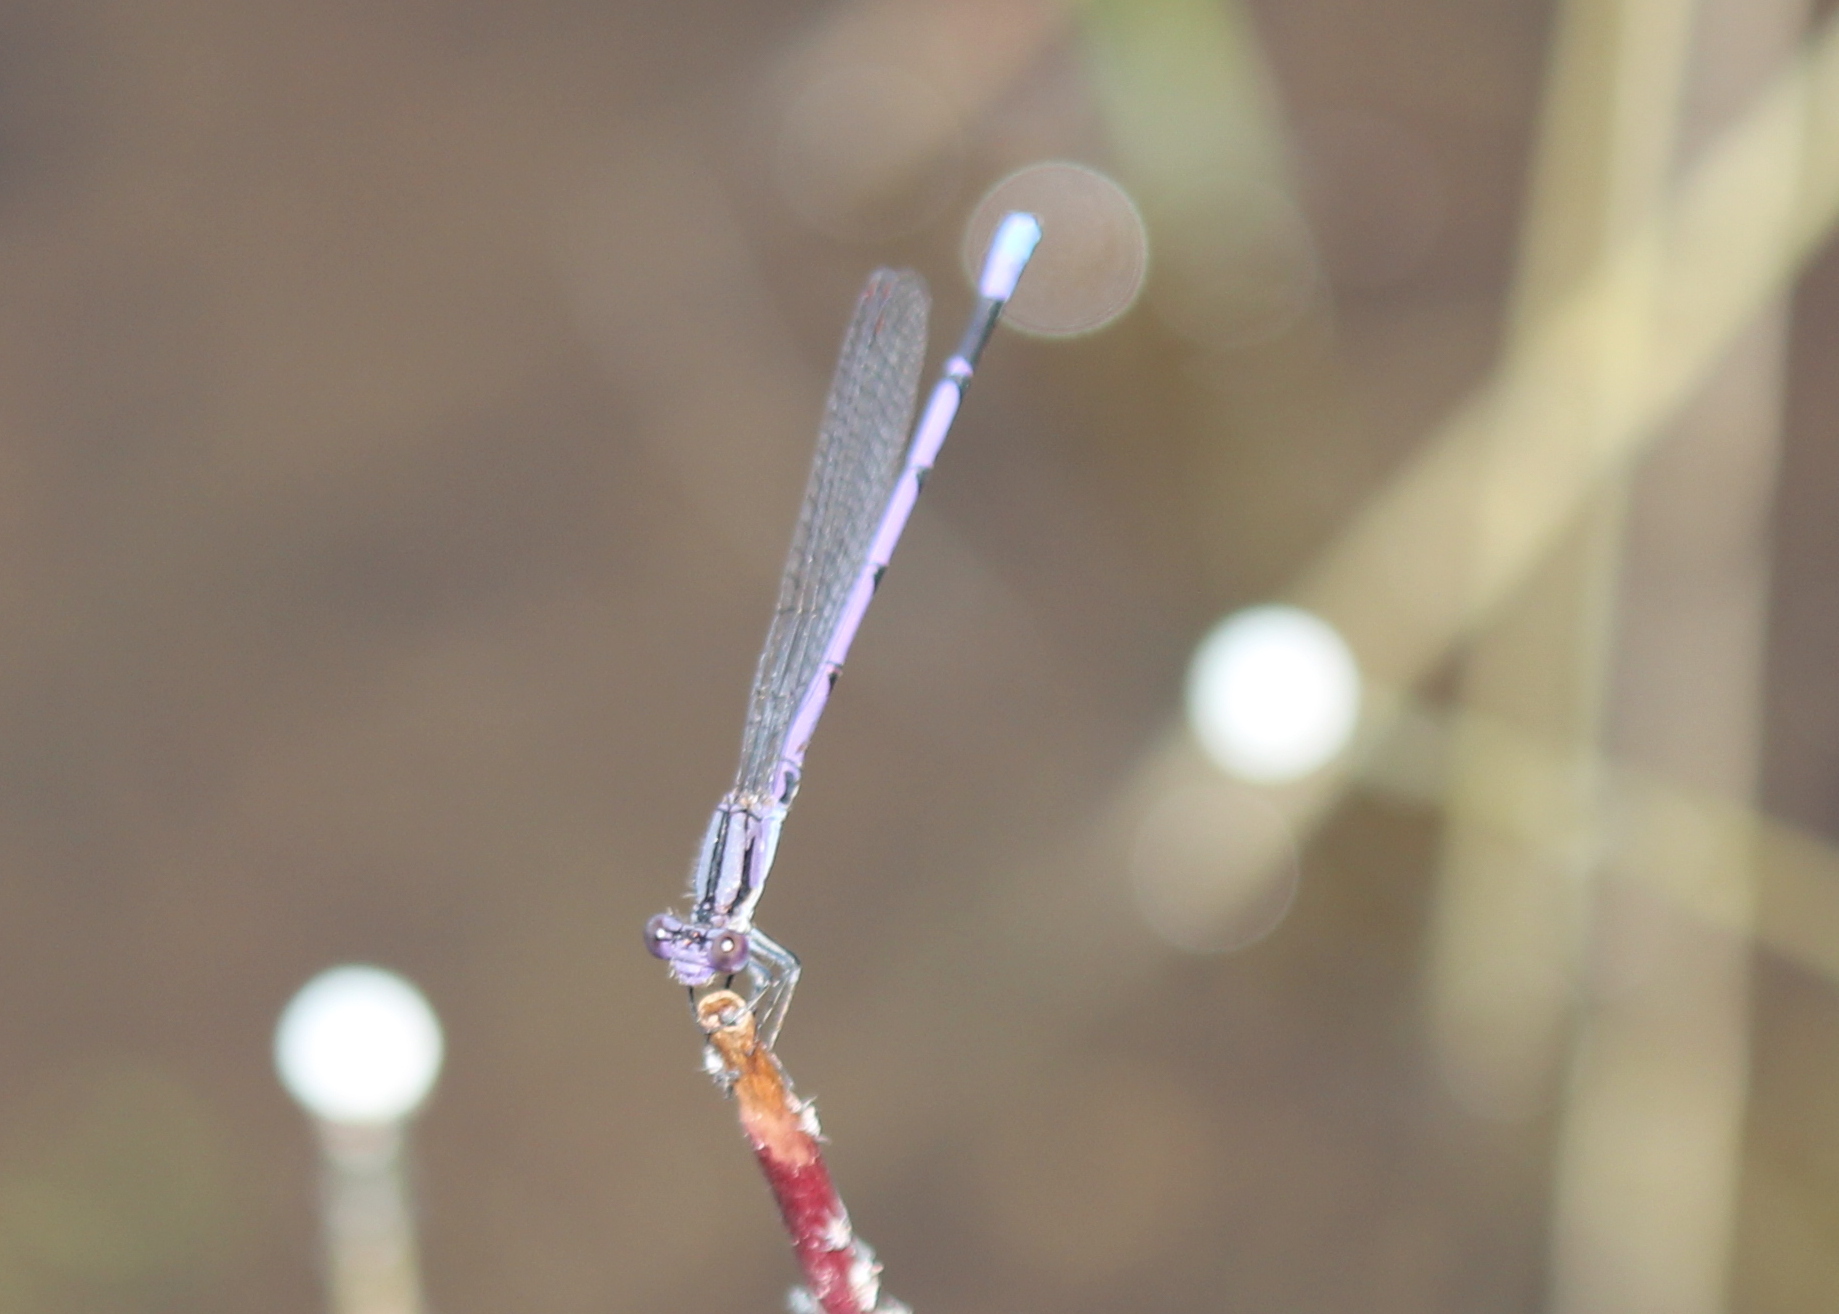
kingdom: Animalia
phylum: Arthropoda
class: Insecta
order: Odonata
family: Coenagrionidae
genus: Argia
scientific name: Argia fumipennis
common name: Variable dancer
